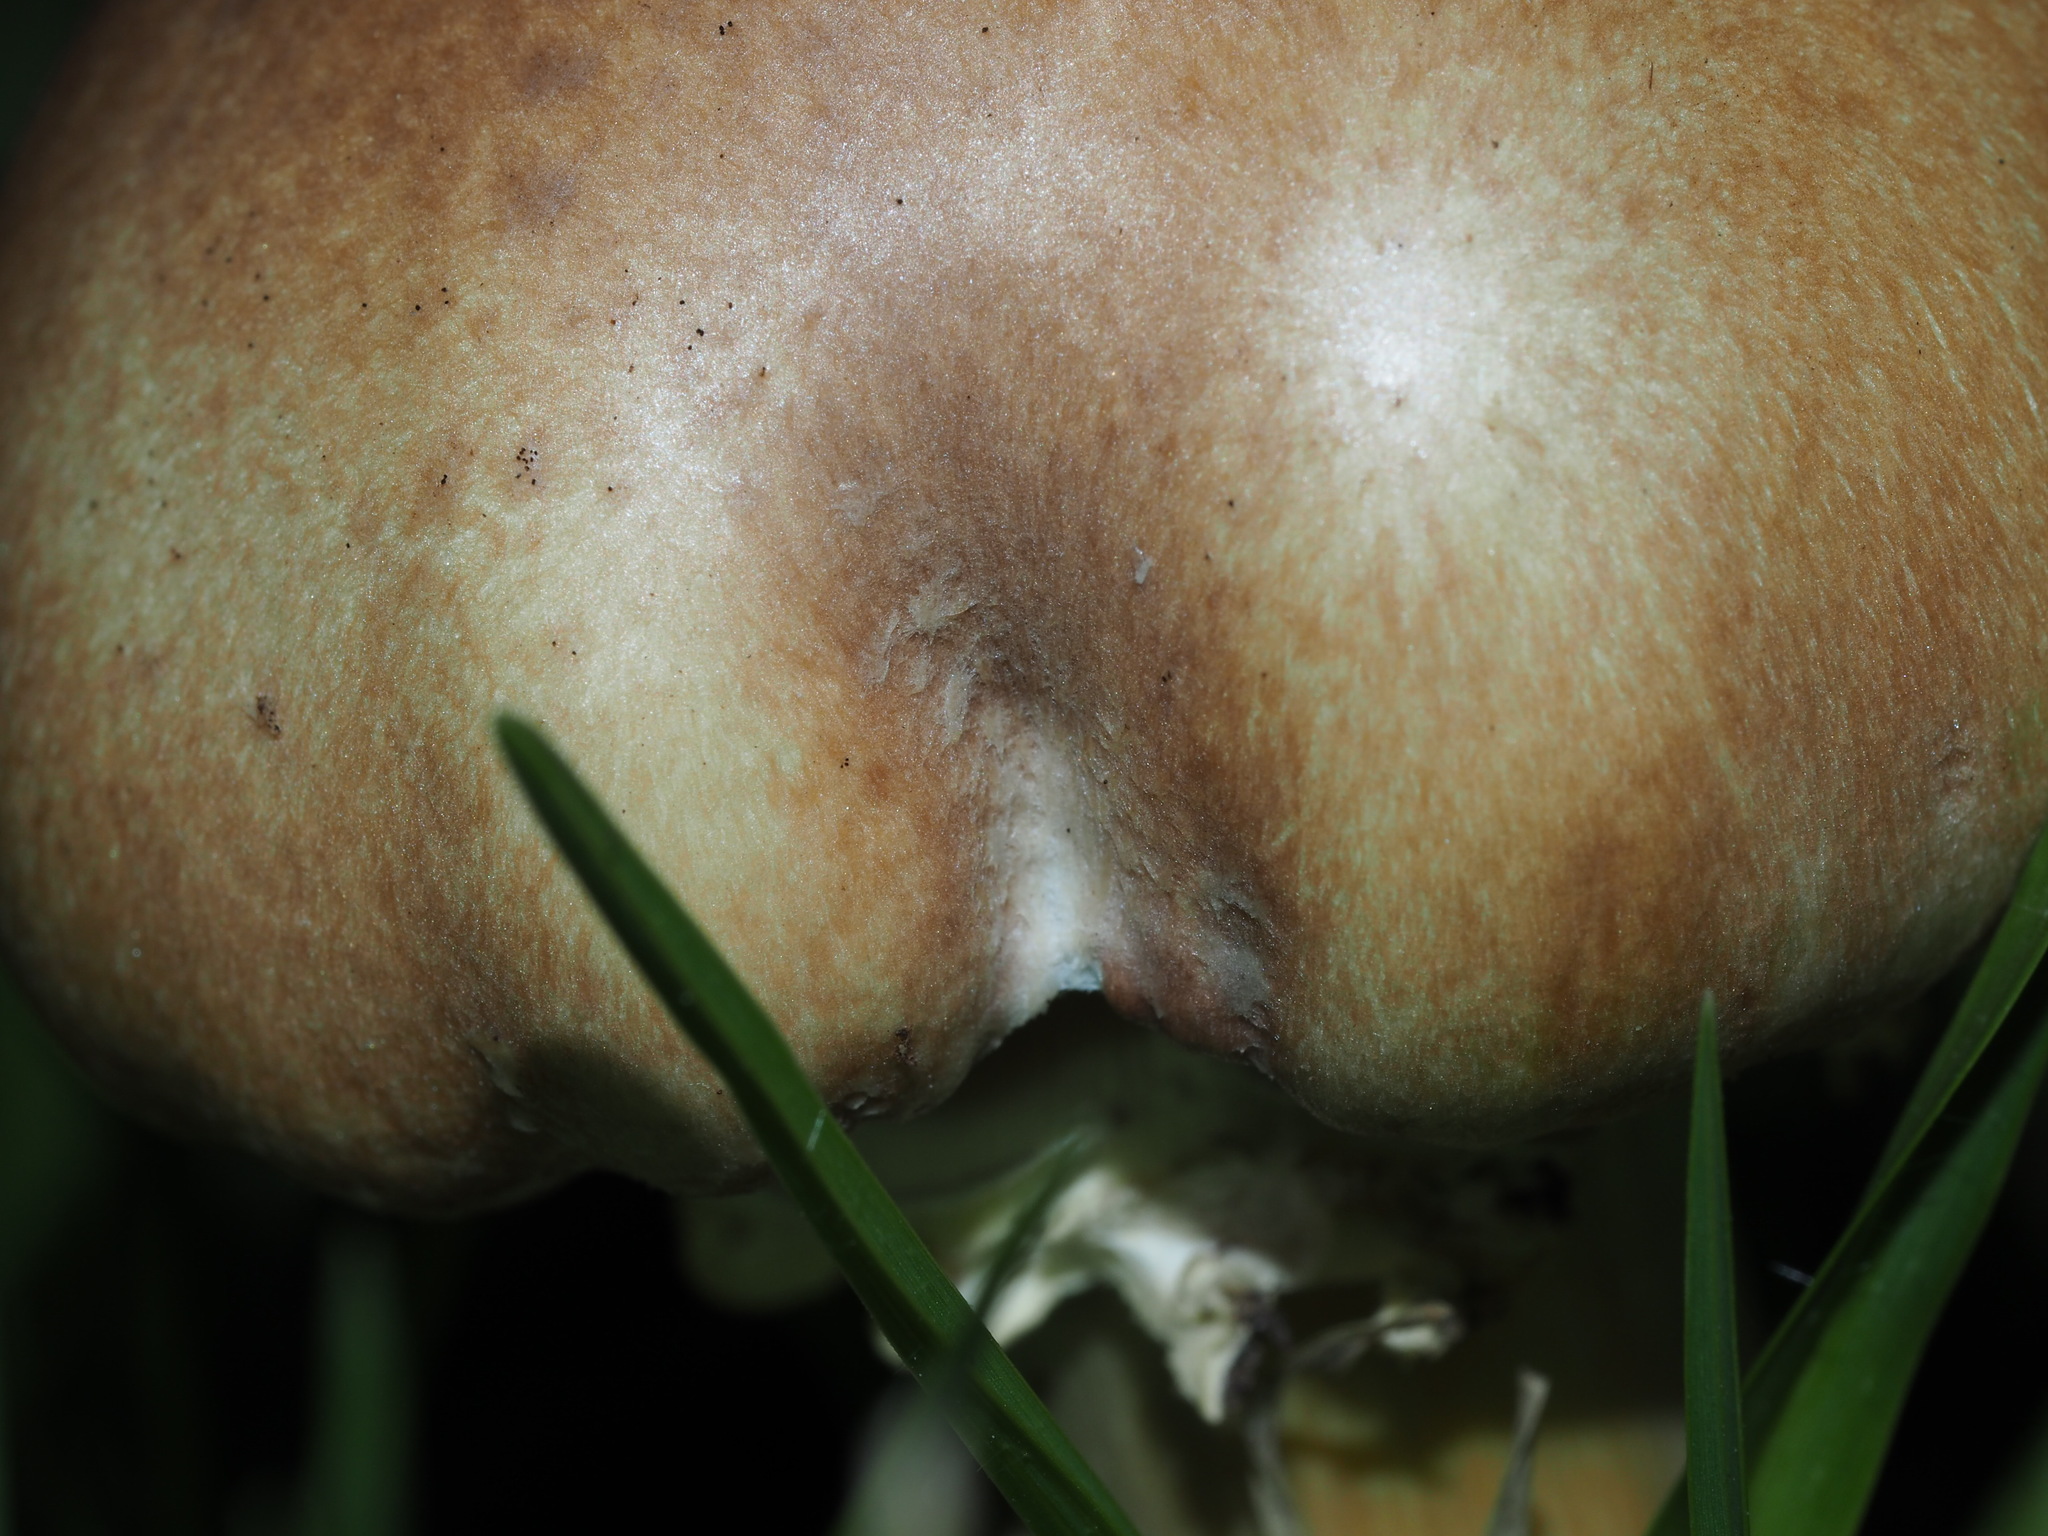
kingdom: Fungi
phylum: Basidiomycota
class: Agaricomycetes
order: Agaricales
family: Strophariaceae
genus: Stropharia
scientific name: Stropharia rugosoannulata
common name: Wine roundhead
